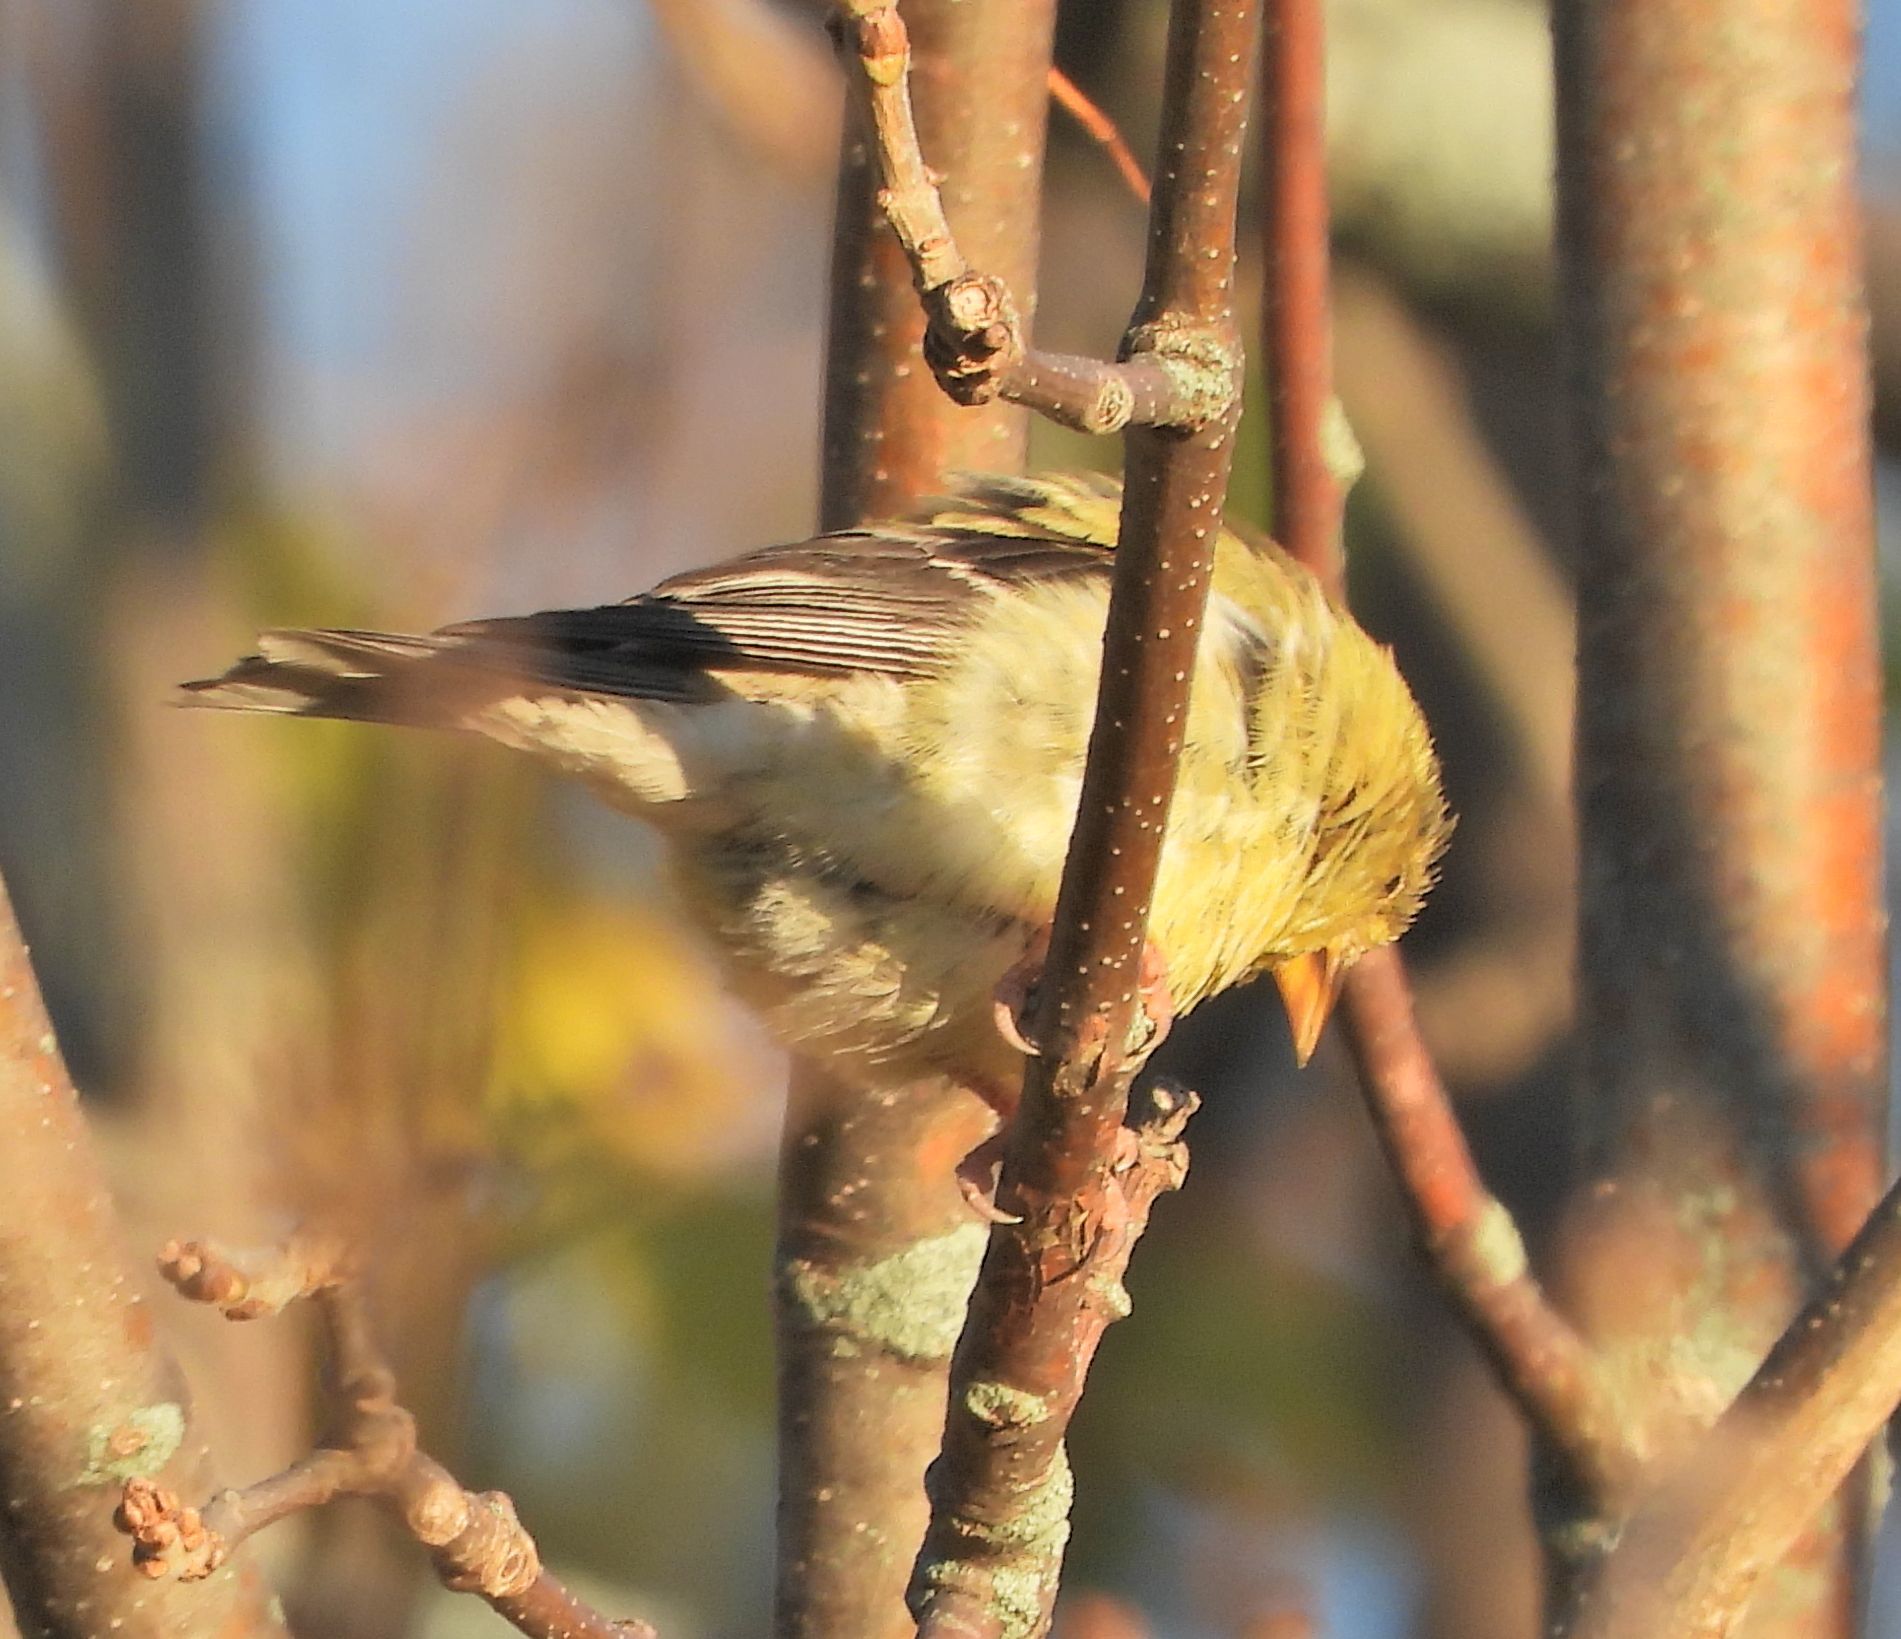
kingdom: Animalia
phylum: Chordata
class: Aves
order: Passeriformes
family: Fringillidae
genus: Spinus
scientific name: Spinus tristis
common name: American goldfinch
